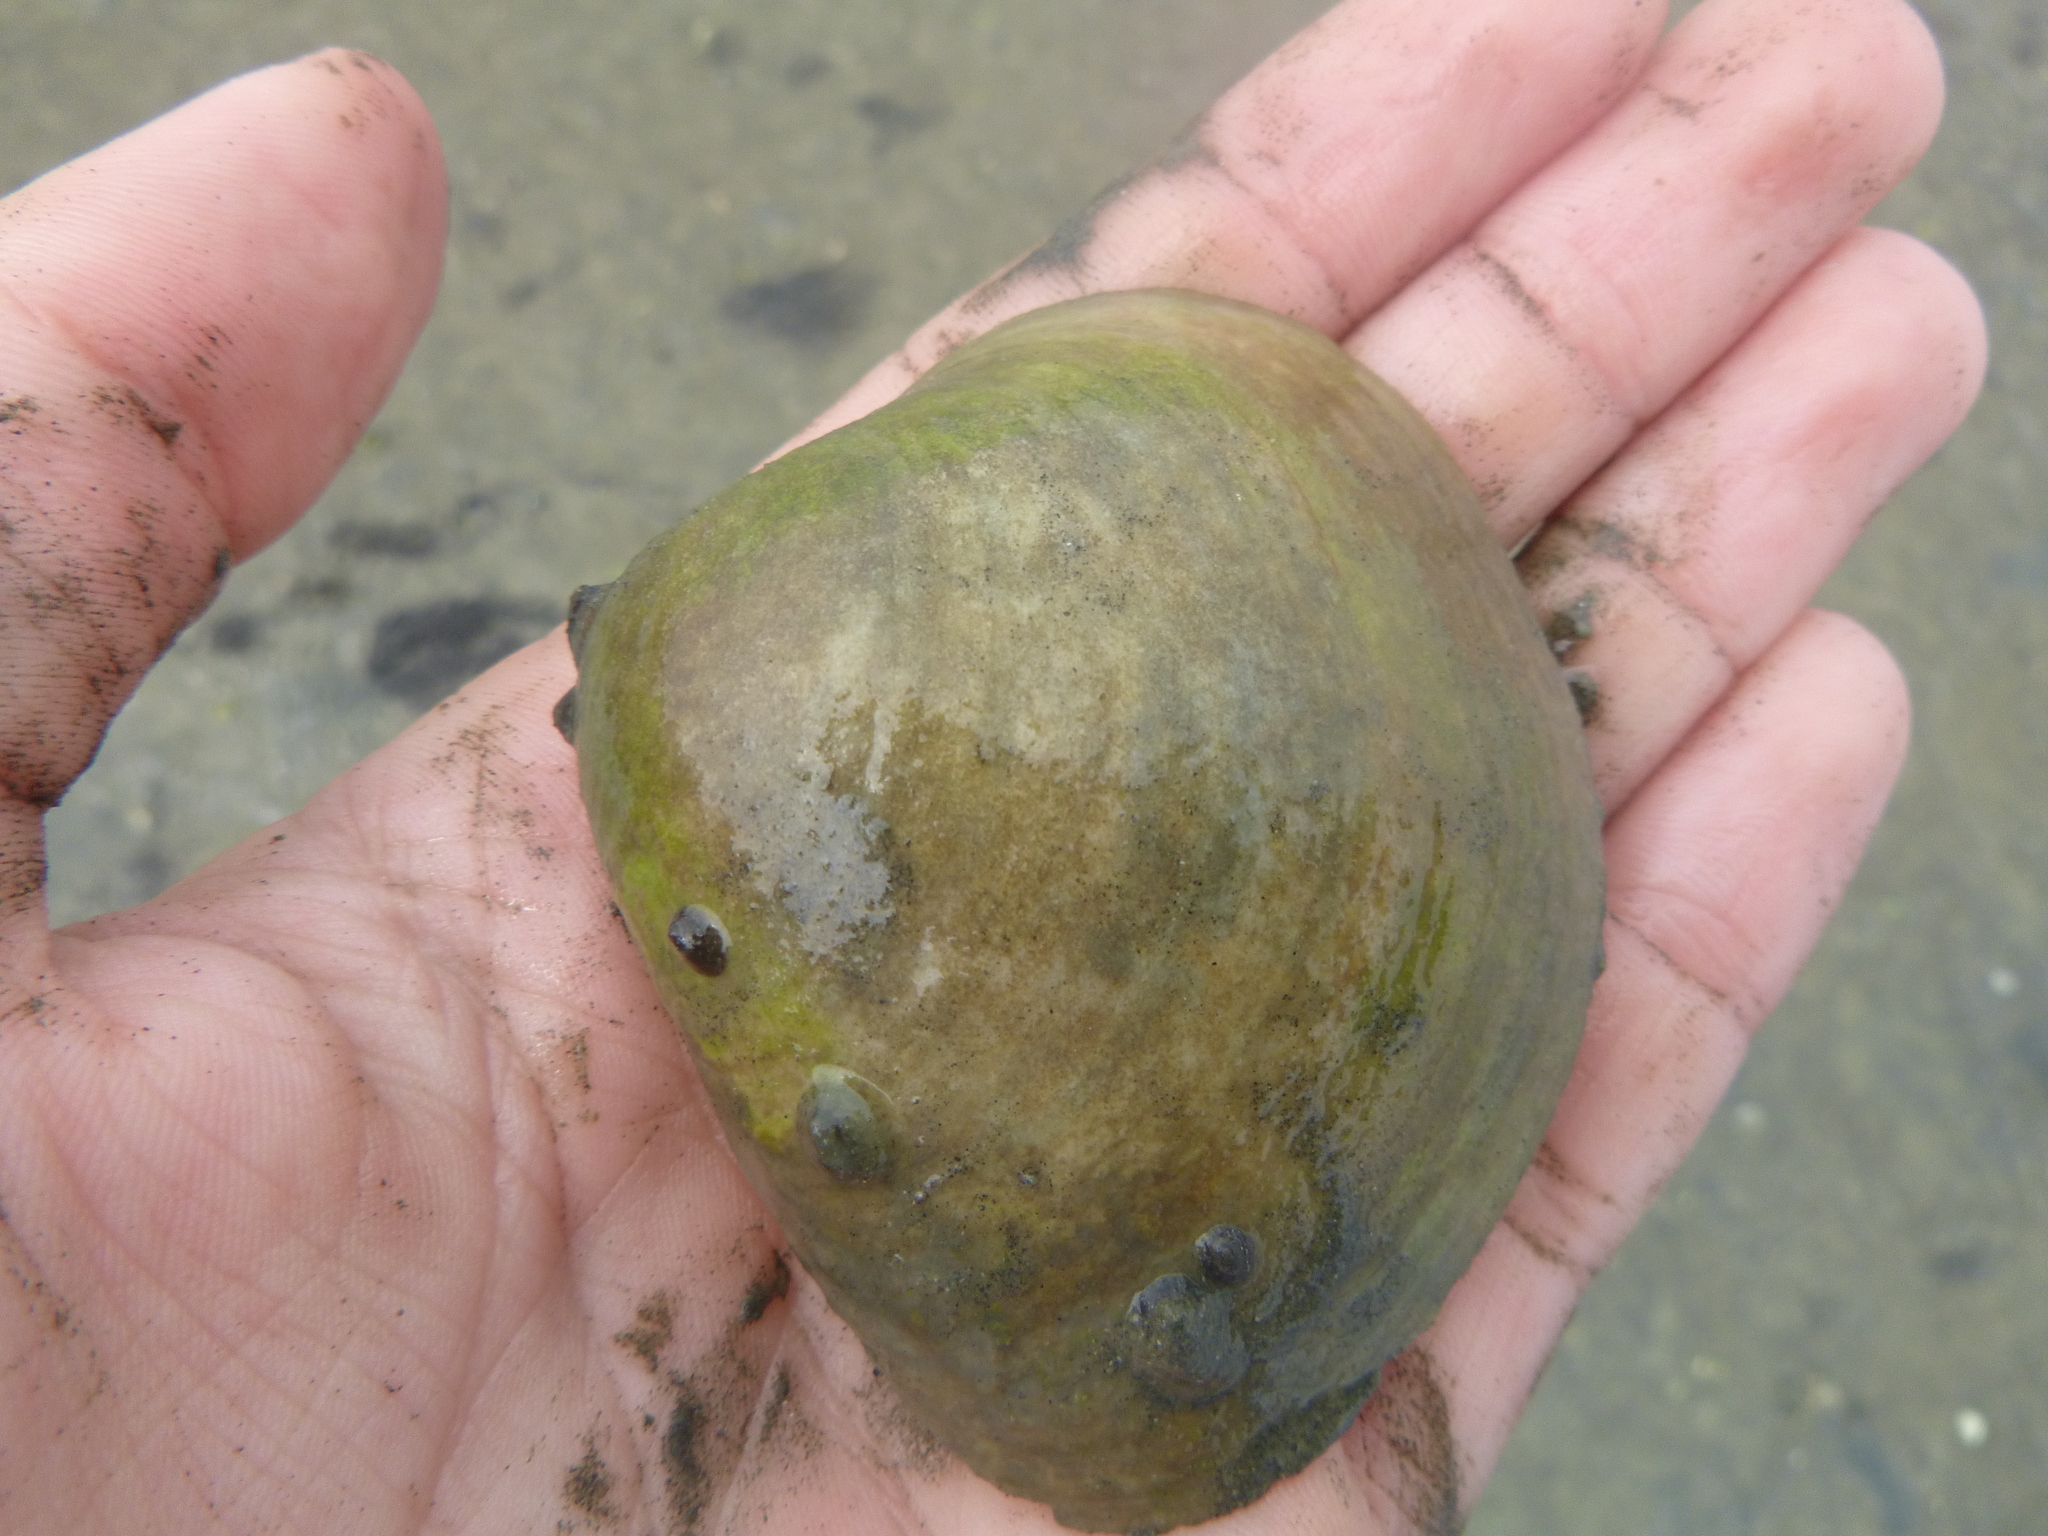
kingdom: Animalia
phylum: Mollusca
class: Bivalvia
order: Venerida
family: Mactridae
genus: Cyclomactra
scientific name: Cyclomactra ovata
